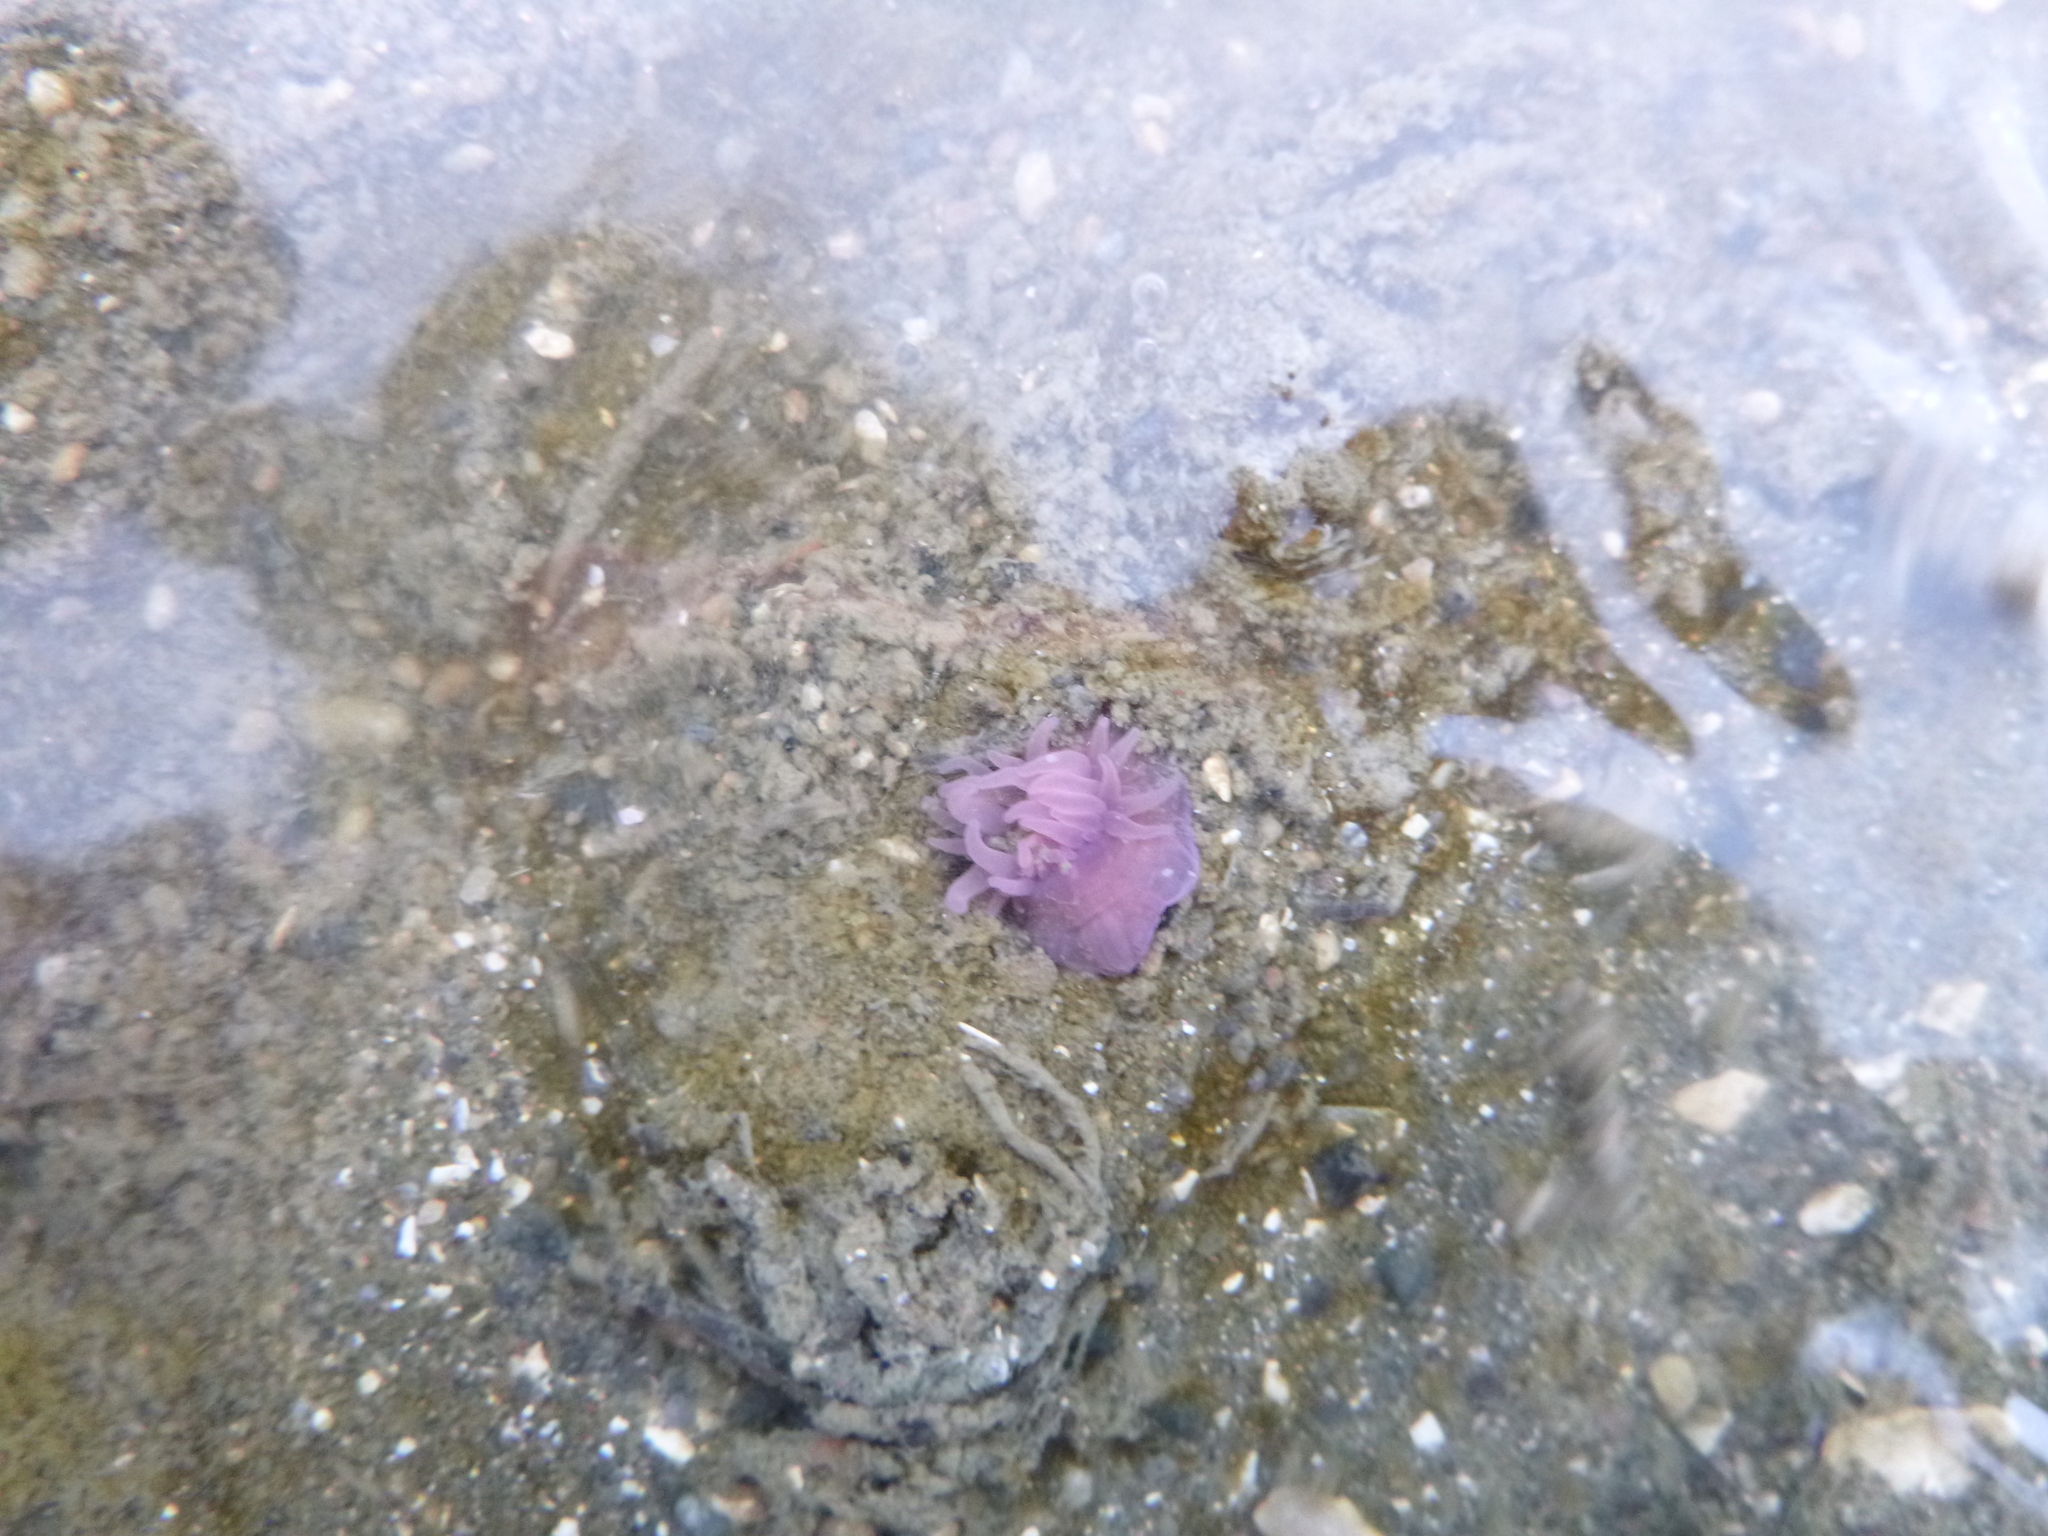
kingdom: Animalia
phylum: Cnidaria
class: Anthozoa
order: Actiniaria
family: Actiniidae
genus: Actinia
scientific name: Actinia tenebrosa
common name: Waratah anemone
